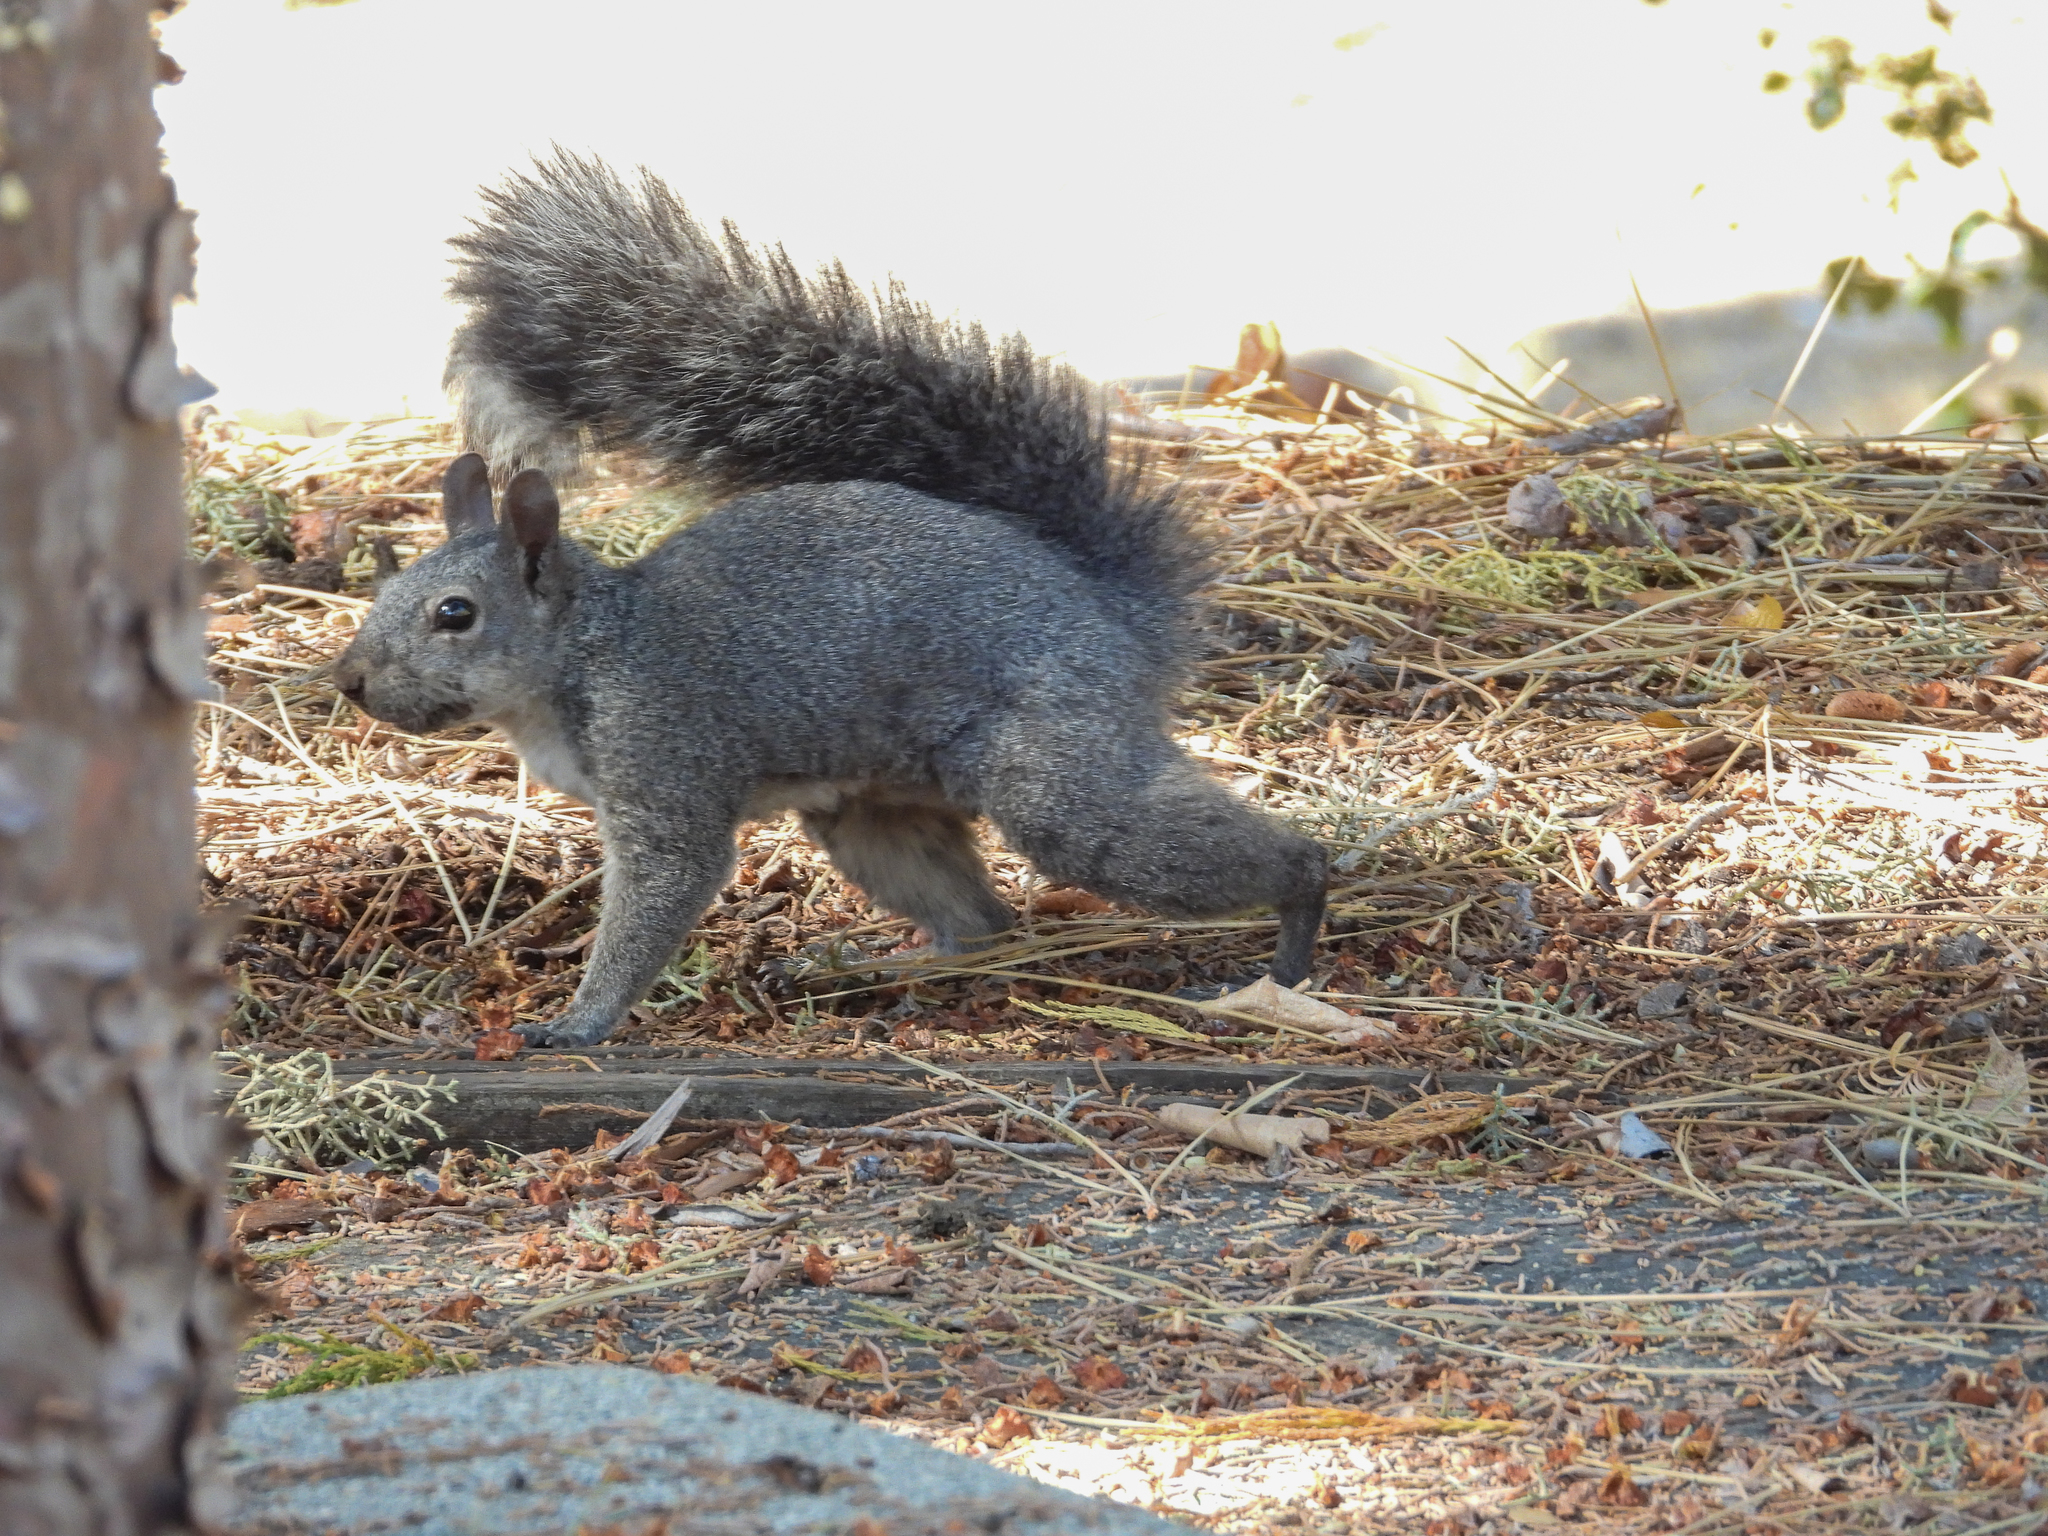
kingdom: Animalia
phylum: Chordata
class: Mammalia
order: Rodentia
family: Sciuridae
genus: Sciurus
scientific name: Sciurus griseus
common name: Western gray squirrel
